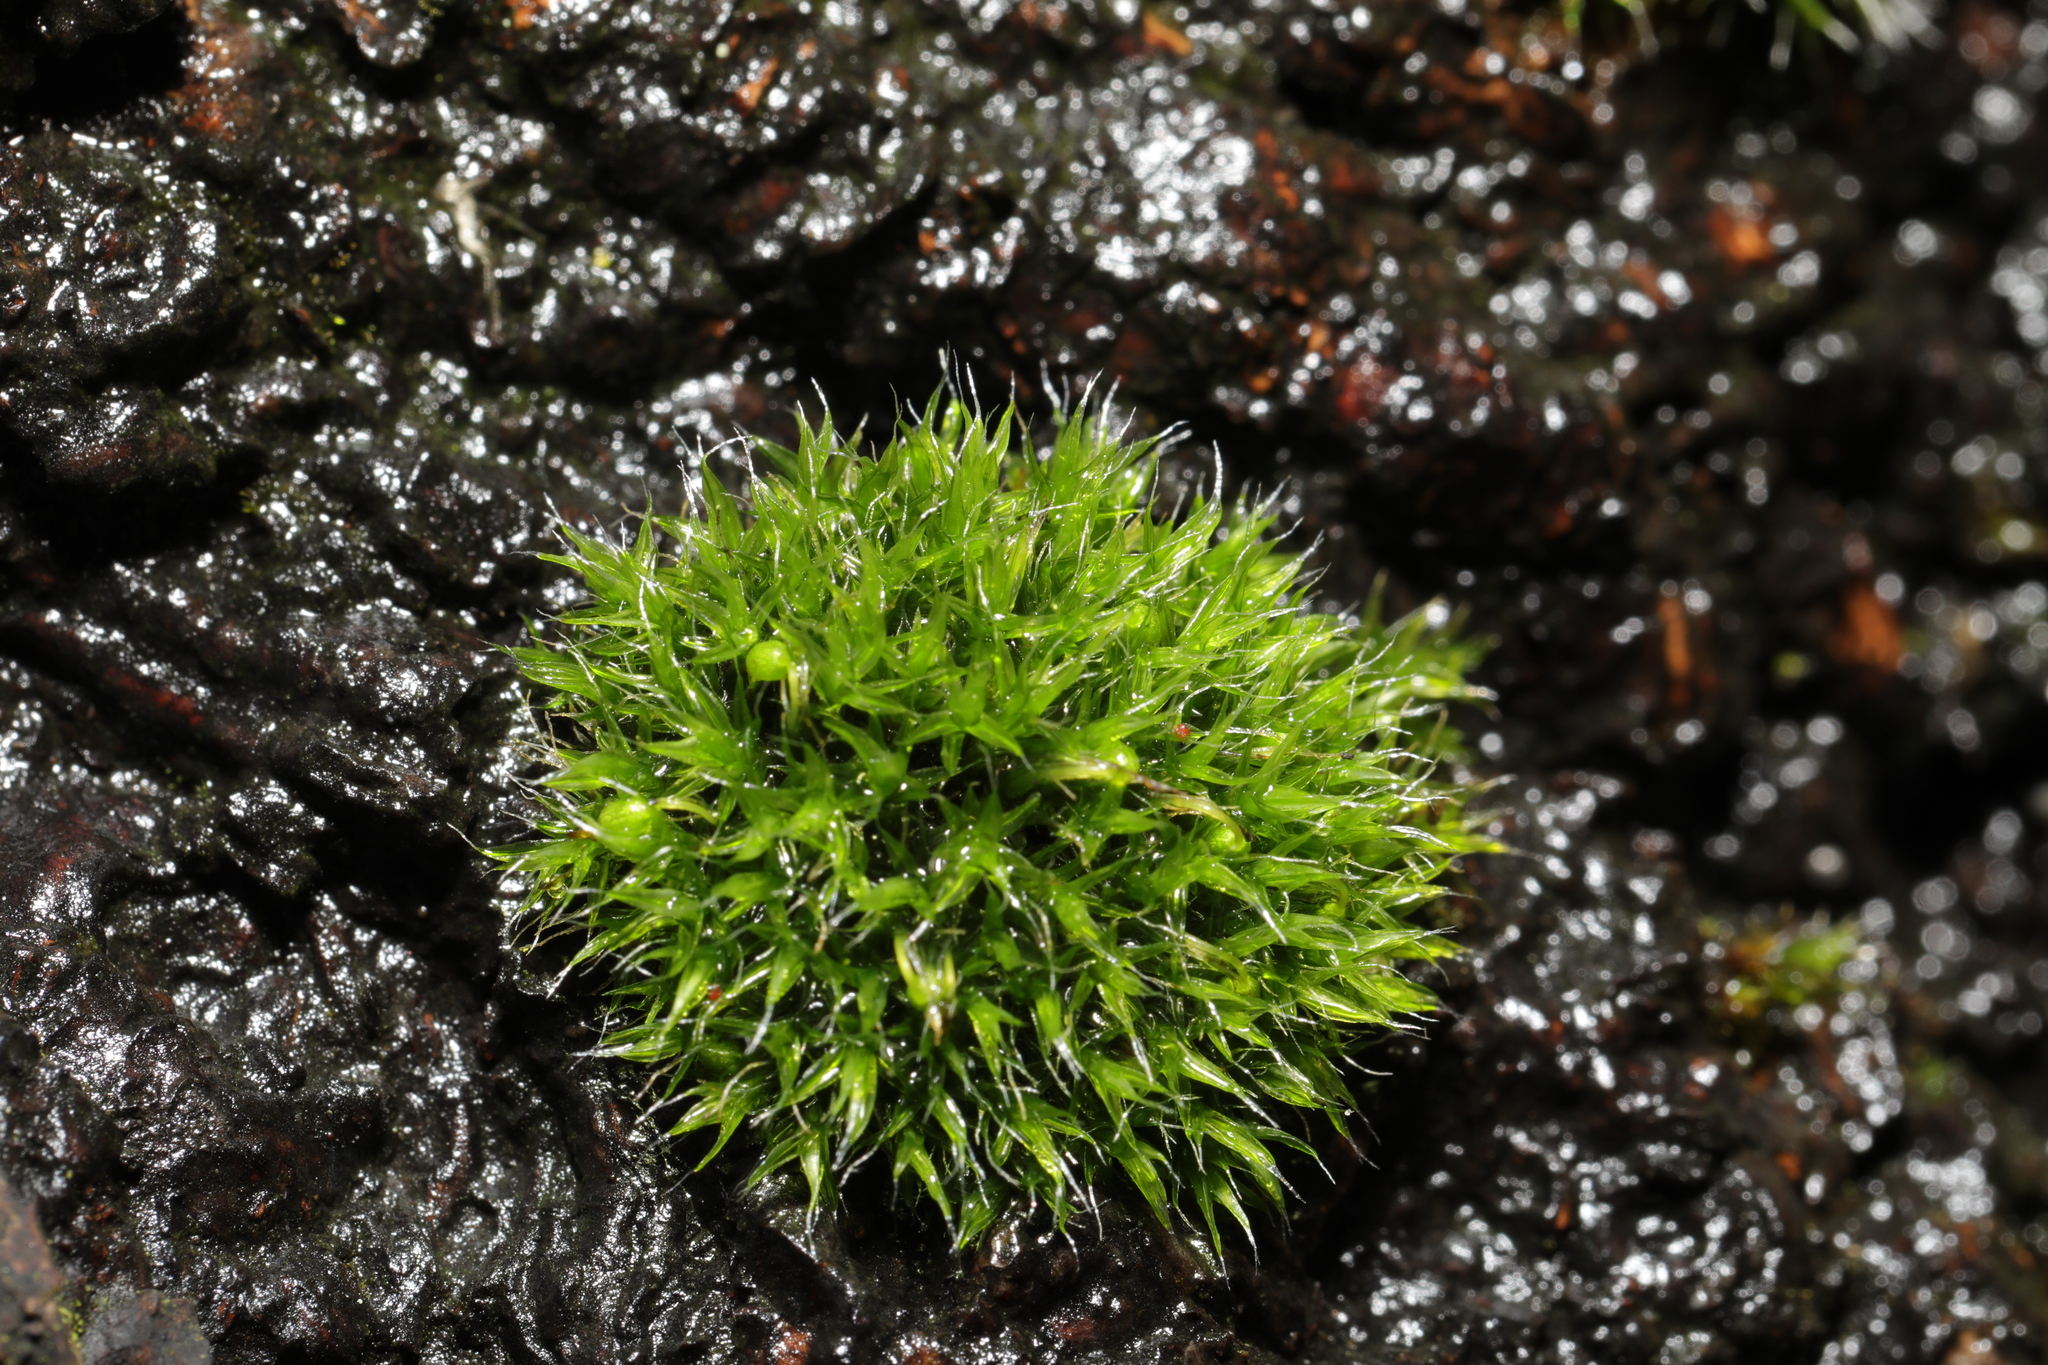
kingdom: Plantae
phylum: Bryophyta
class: Bryopsida
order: Grimmiales
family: Grimmiaceae
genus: Grimmia
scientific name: Grimmia pulvinata
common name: Grey-cushioned grimmia
